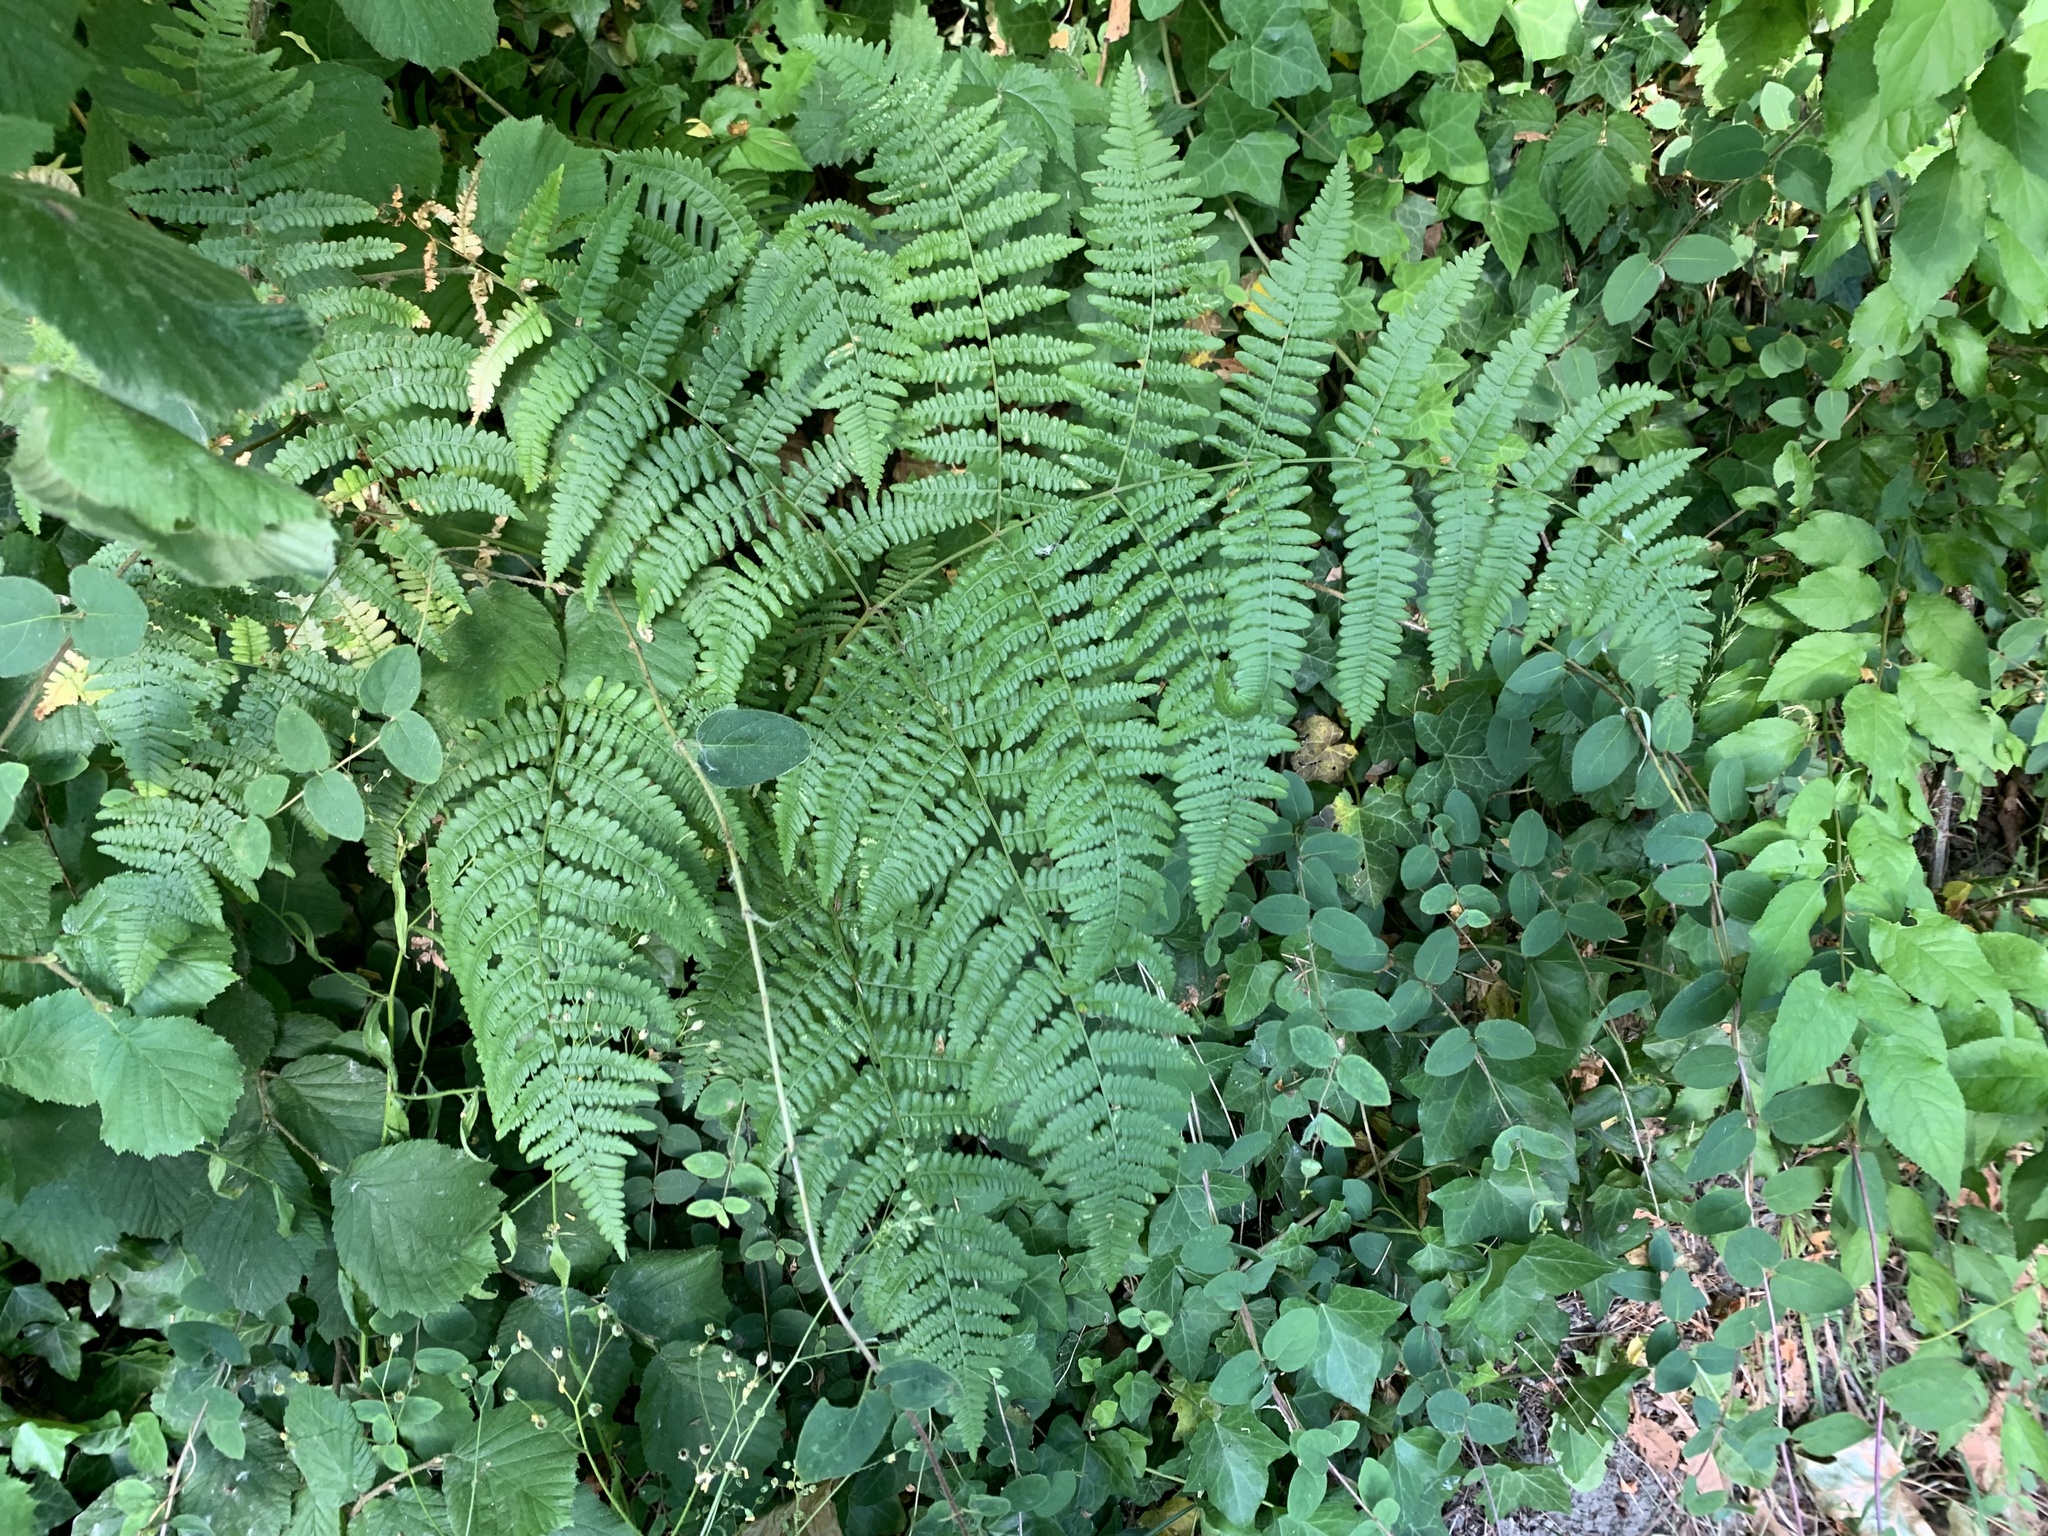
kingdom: Plantae
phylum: Tracheophyta
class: Polypodiopsida
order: Polypodiales
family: Dennstaedtiaceae
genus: Pteridium
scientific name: Pteridium aquilinum
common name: Bracken
